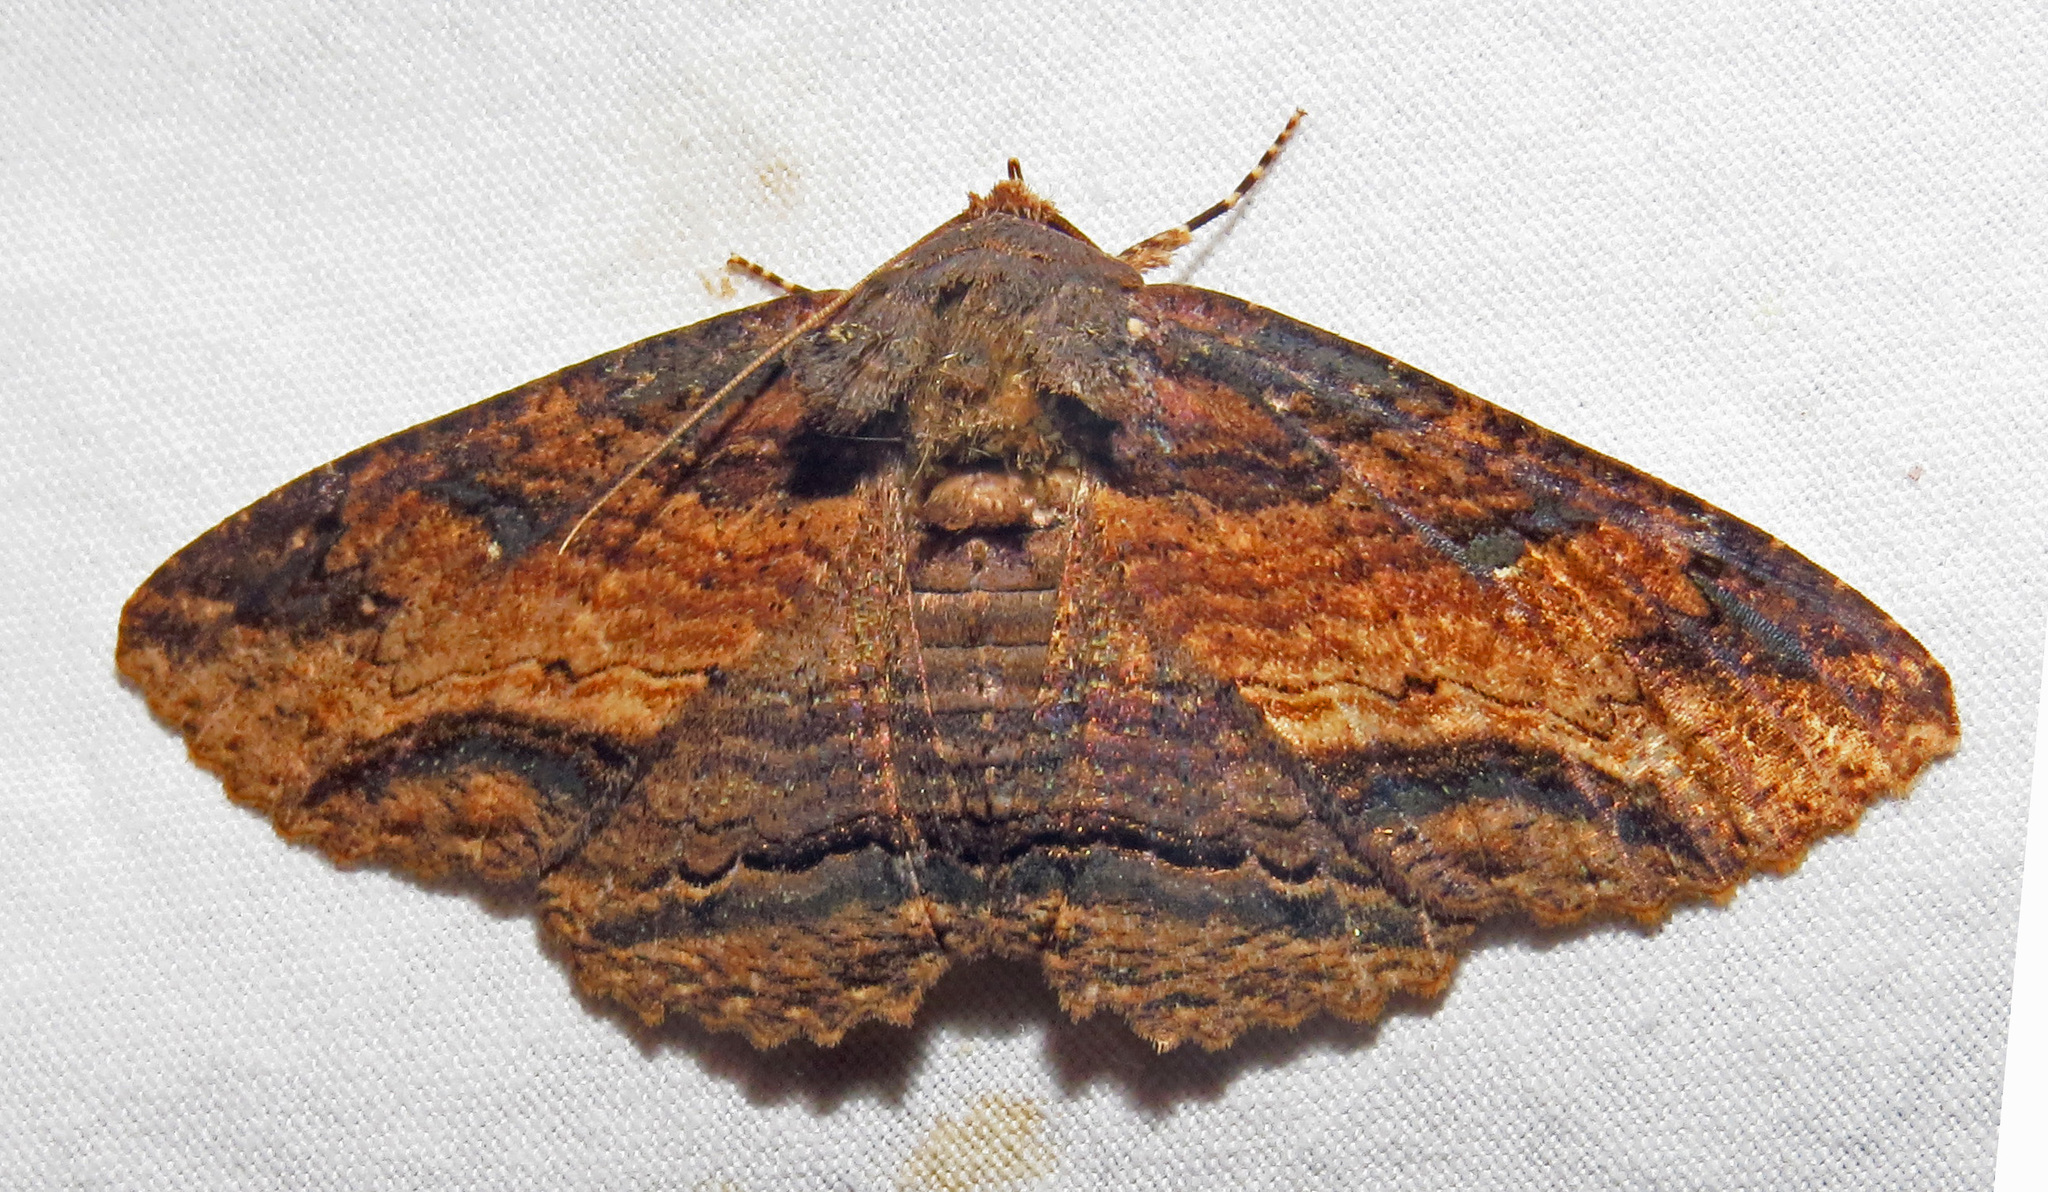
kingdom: Animalia
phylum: Arthropoda
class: Insecta
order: Lepidoptera
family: Erebidae
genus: Zale
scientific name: Zale lunata
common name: Lunate zale moth
